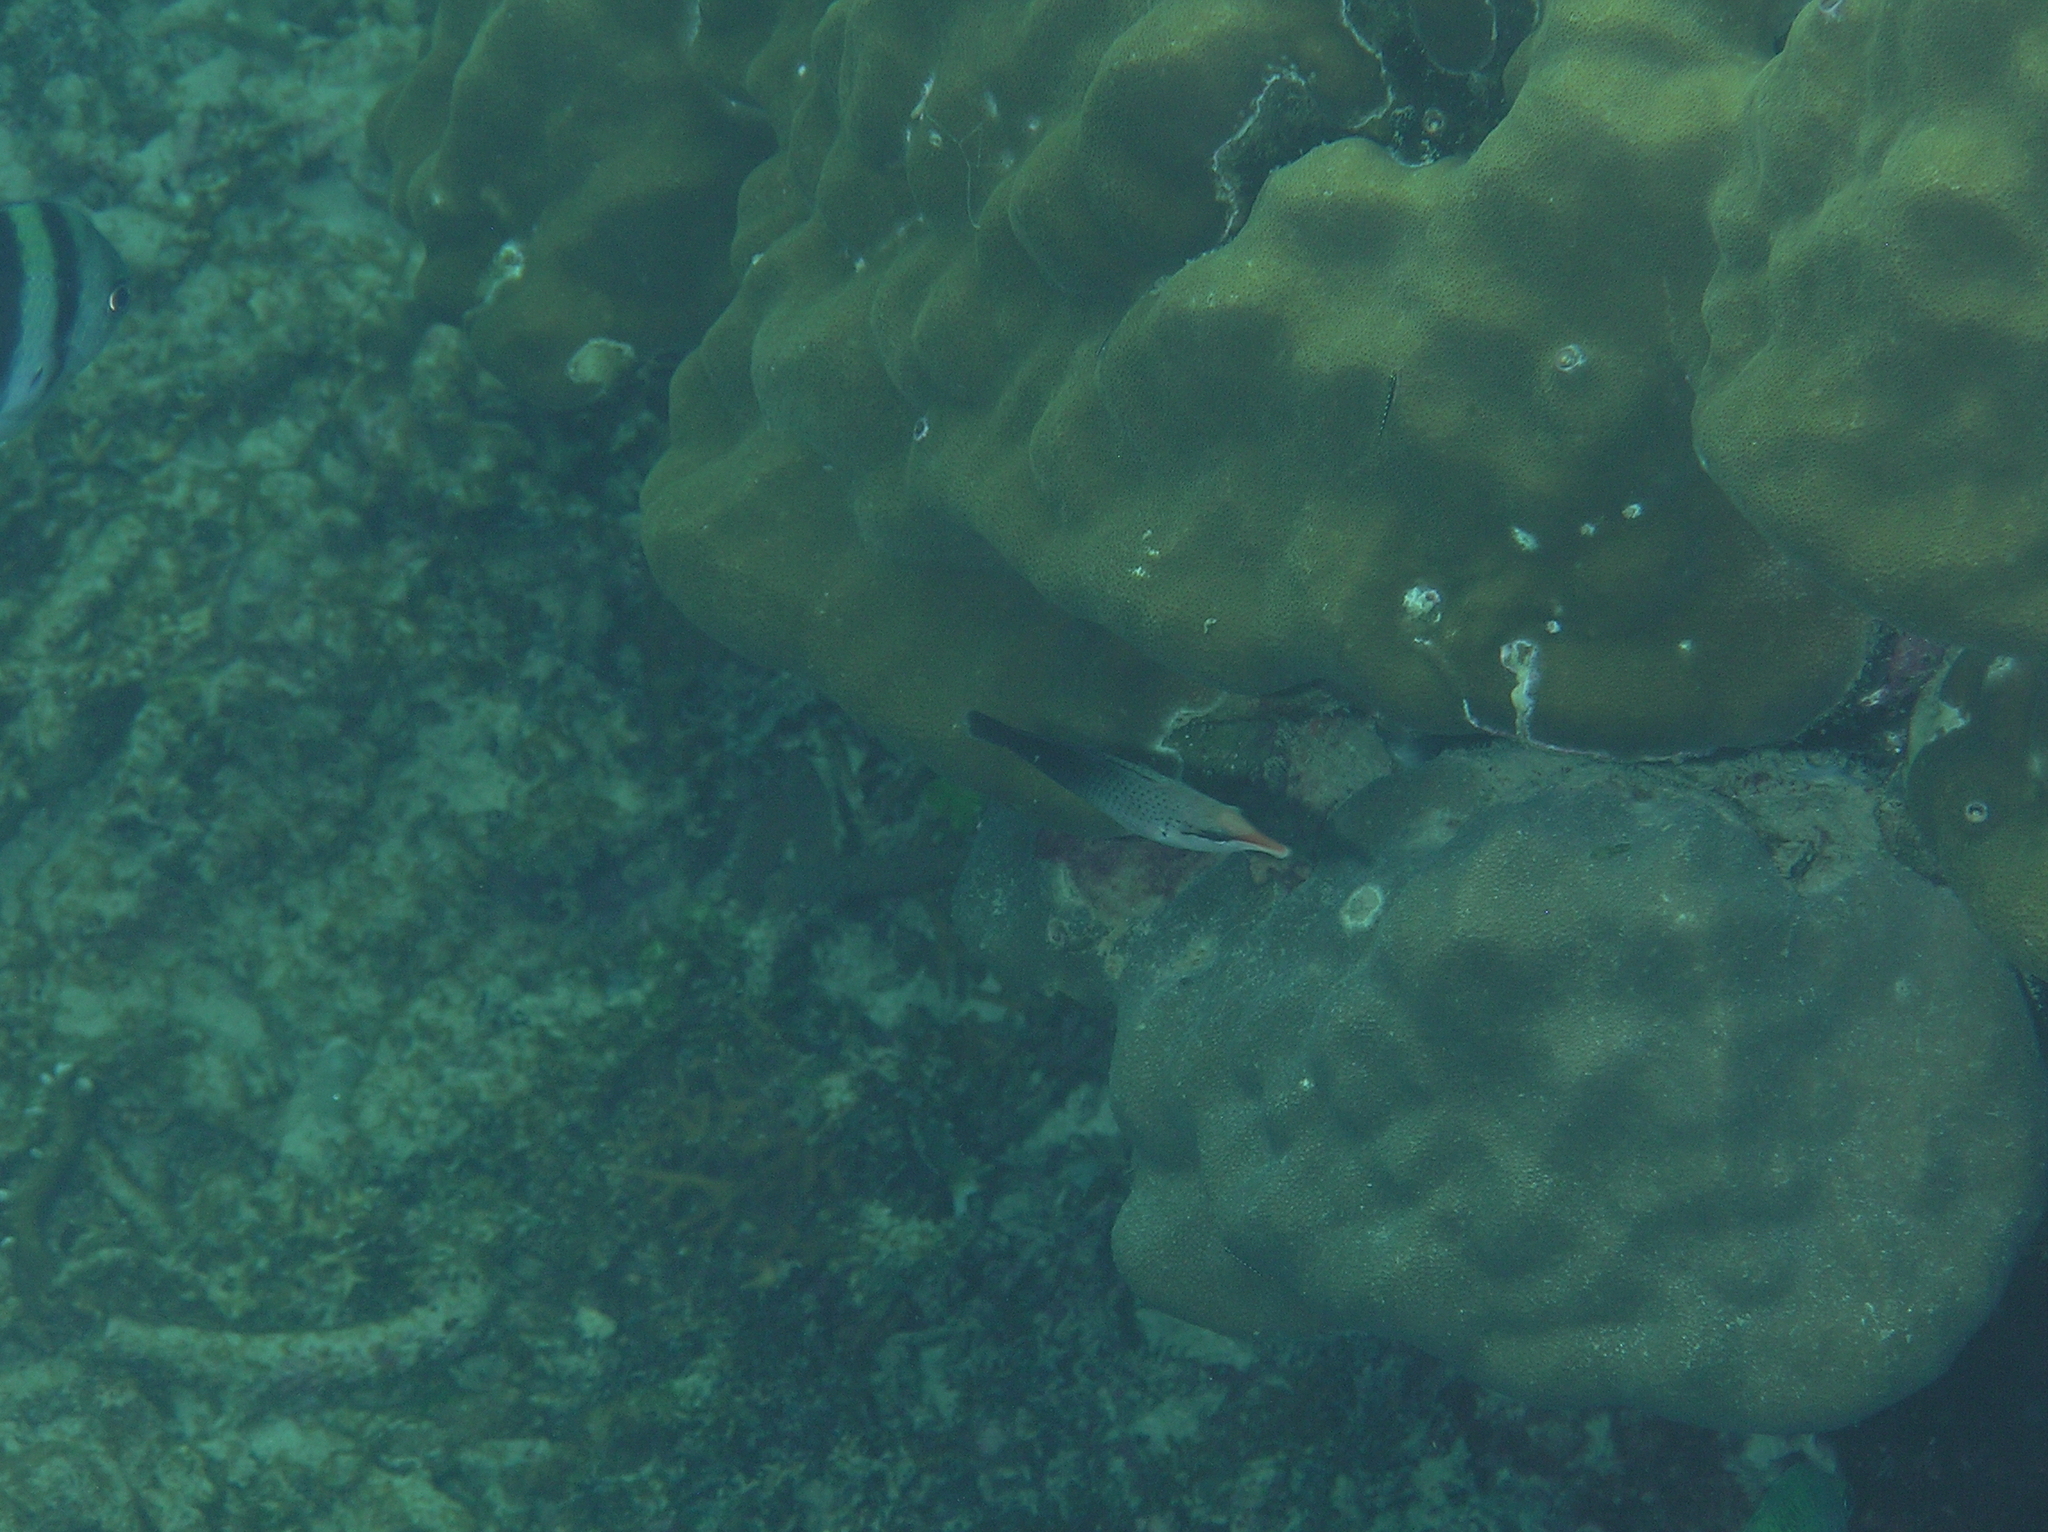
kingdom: Animalia
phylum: Chordata
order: Perciformes
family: Labridae
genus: Gomphosus
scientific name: Gomphosus varius
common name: Bird wrasse
